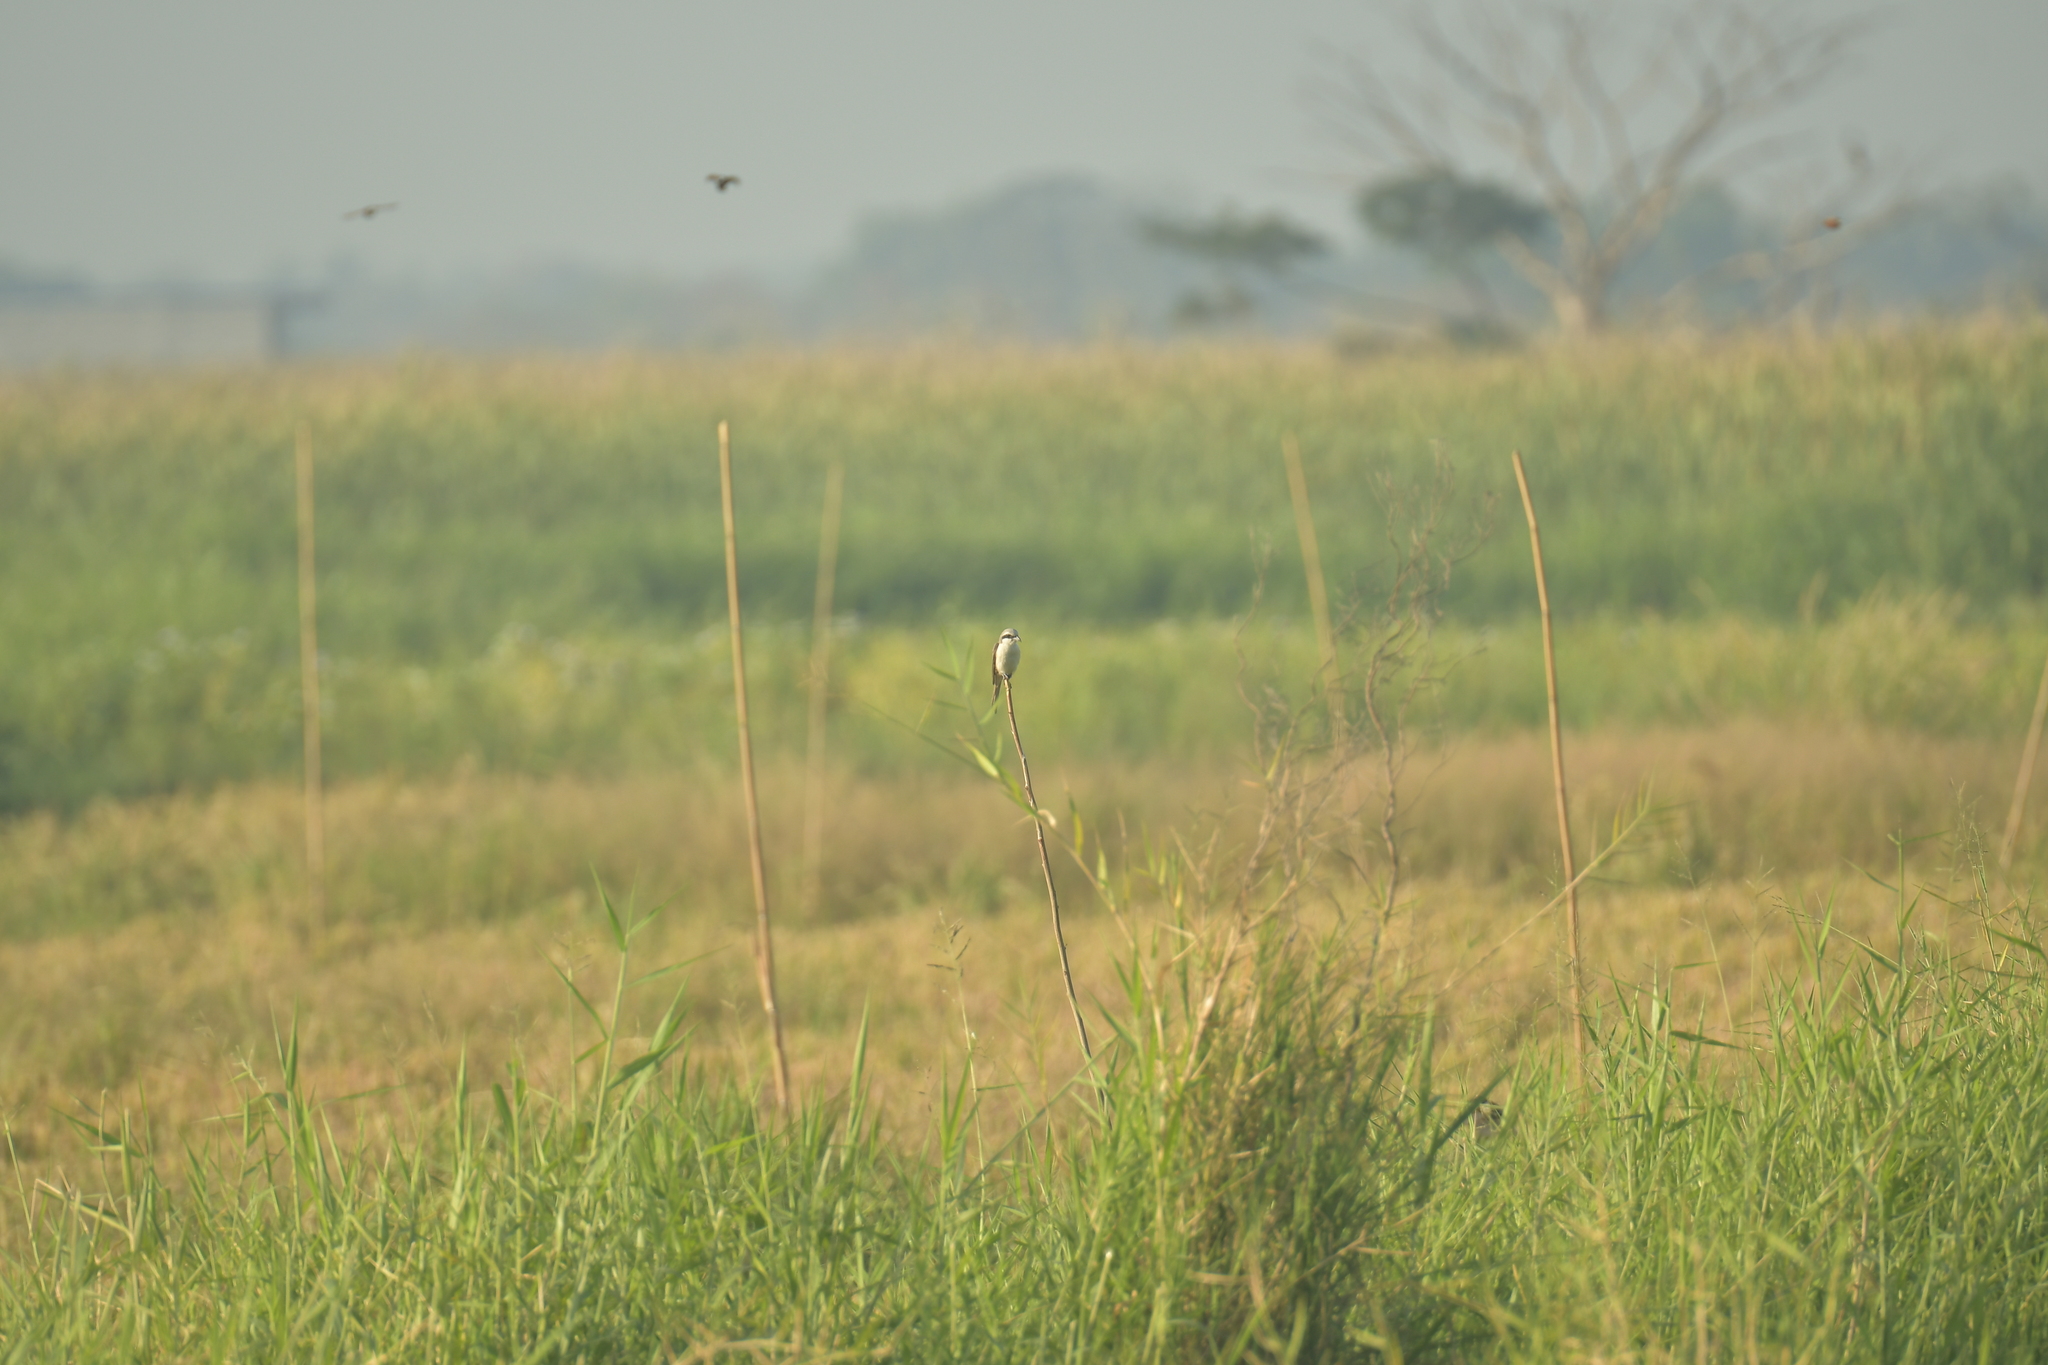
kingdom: Animalia
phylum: Chordata
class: Aves
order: Passeriformes
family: Laniidae
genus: Lanius
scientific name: Lanius cristatus
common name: Brown shrike
